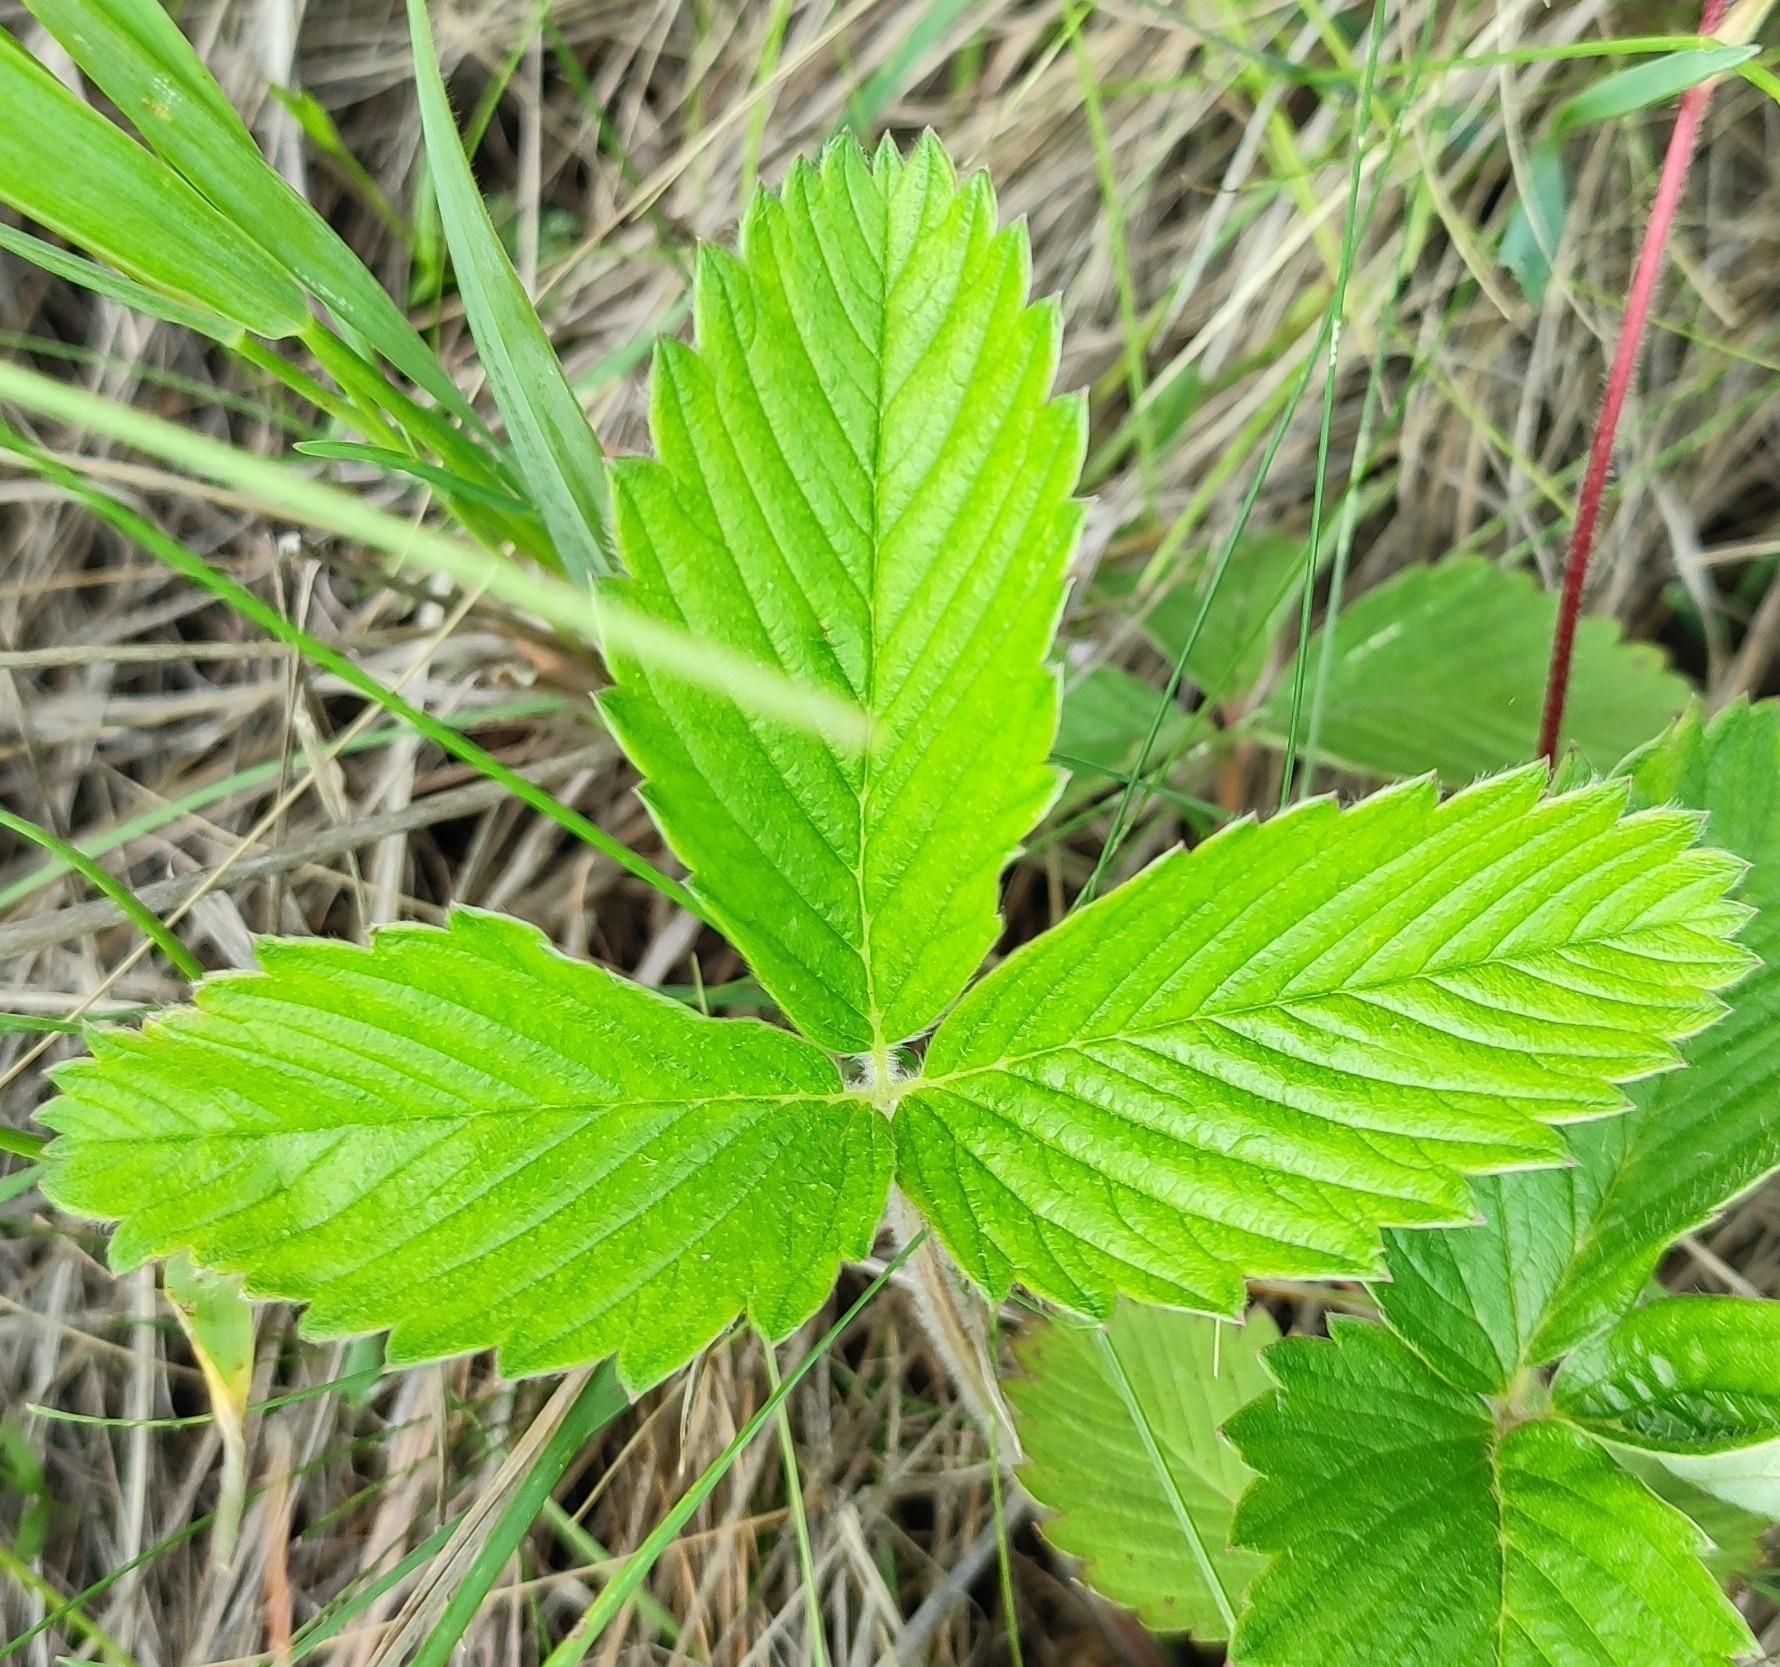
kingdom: Plantae
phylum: Tracheophyta
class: Magnoliopsida
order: Rosales
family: Rosaceae
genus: Fragaria
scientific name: Fragaria viridis
